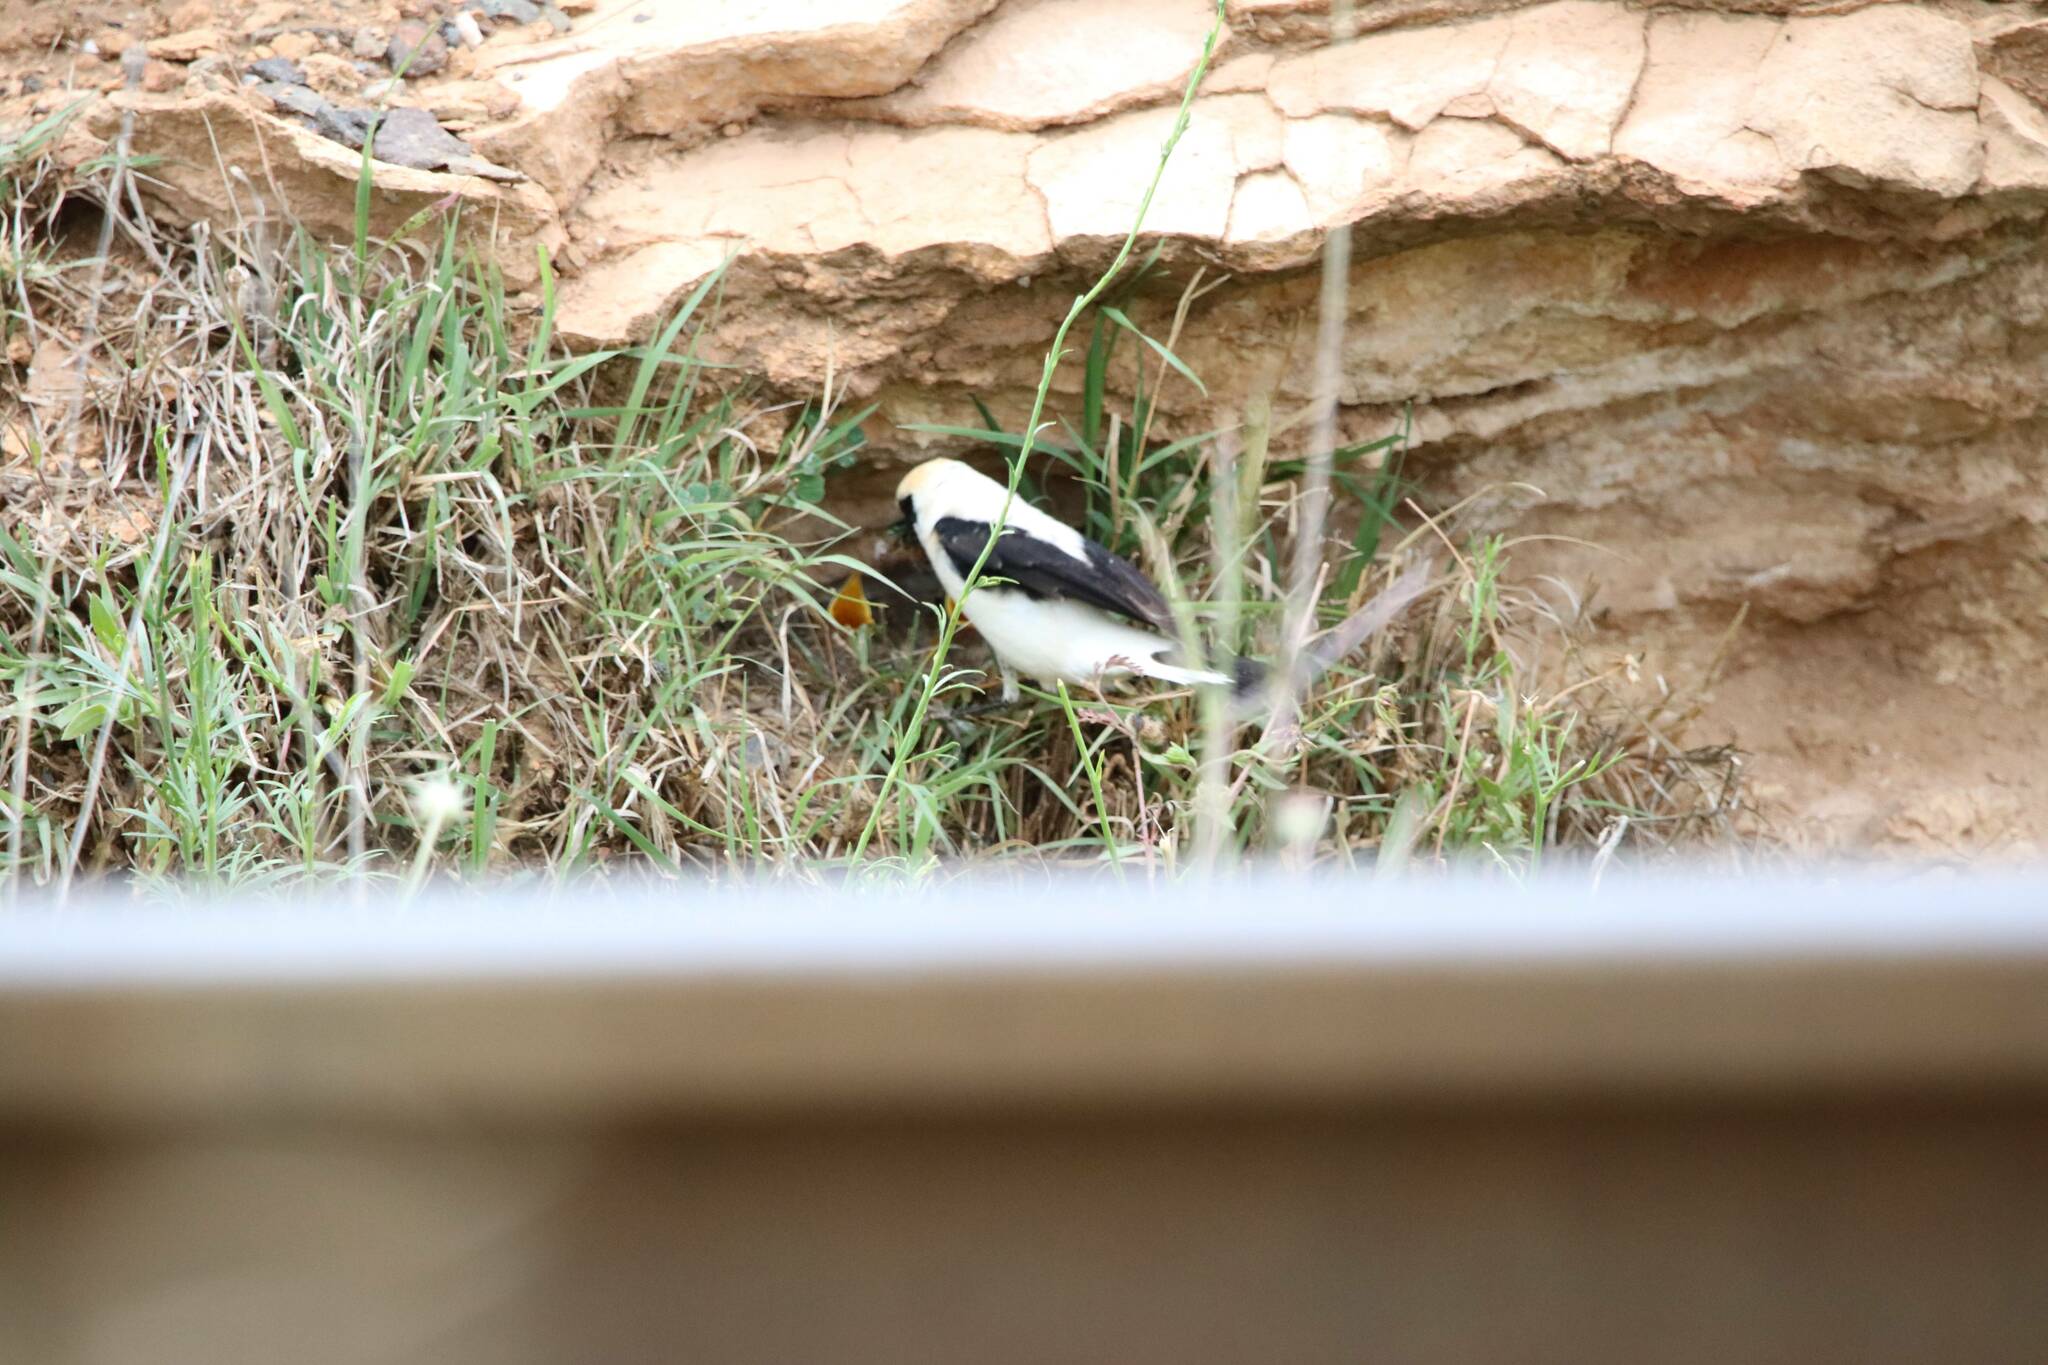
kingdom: Animalia
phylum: Chordata
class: Aves
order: Passeriformes
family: Muscicapidae
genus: Oenanthe
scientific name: Oenanthe hispanica
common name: Black-eared wheatear
